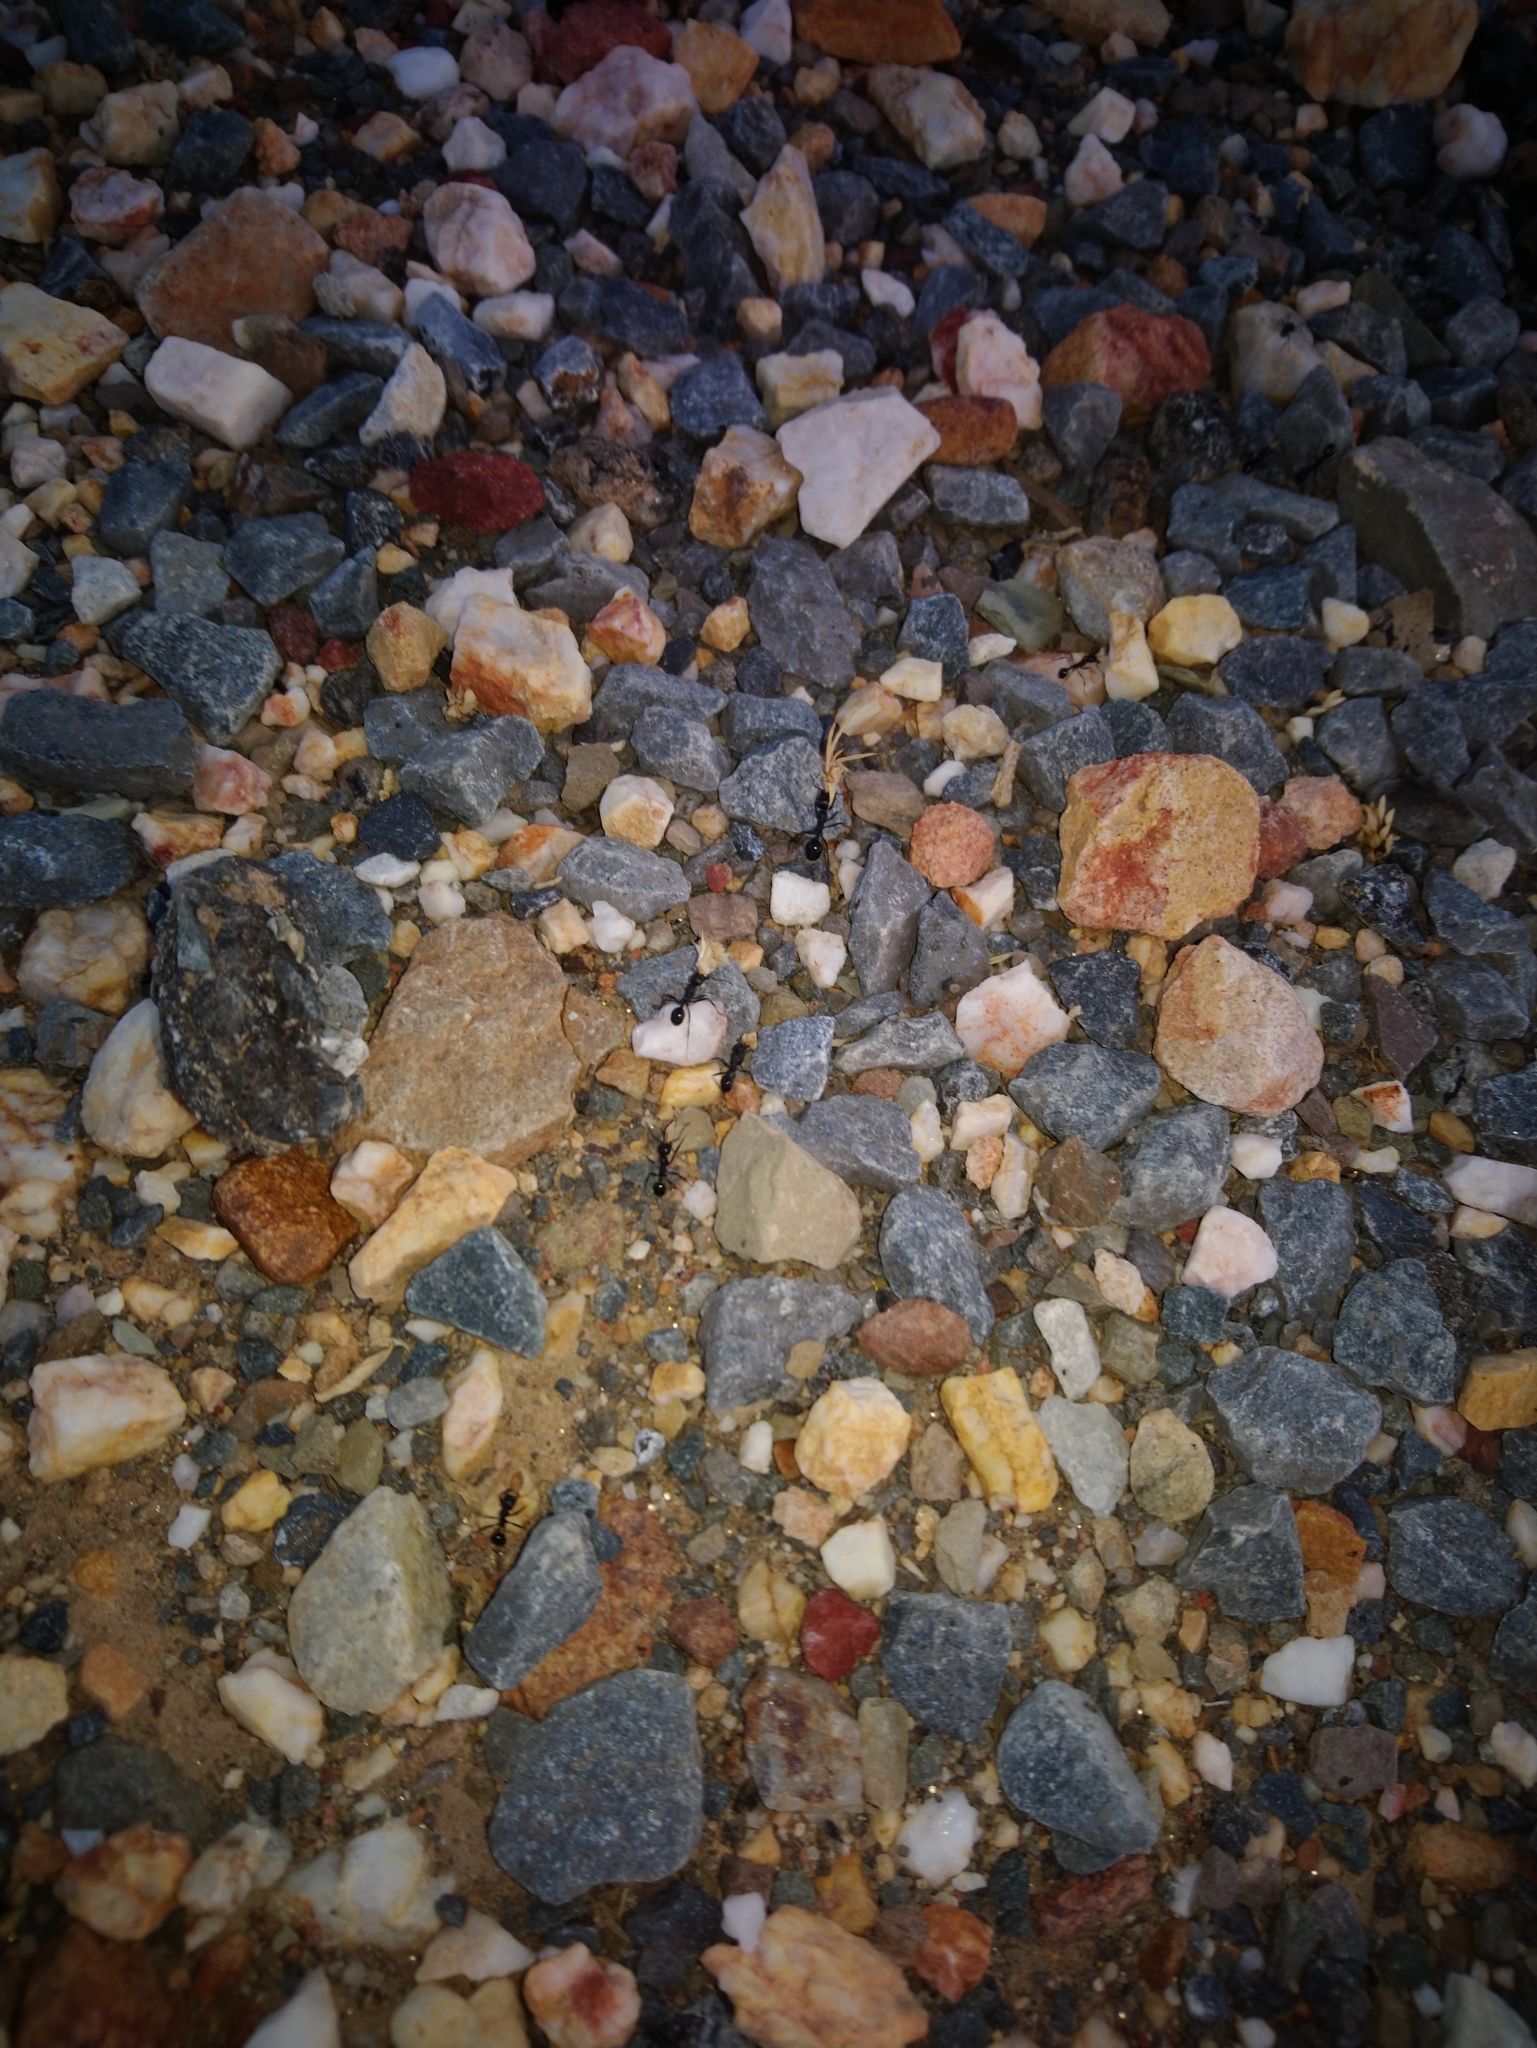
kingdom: Animalia
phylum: Arthropoda
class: Insecta
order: Hymenoptera
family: Formicidae
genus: Messor
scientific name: Messor capensis
